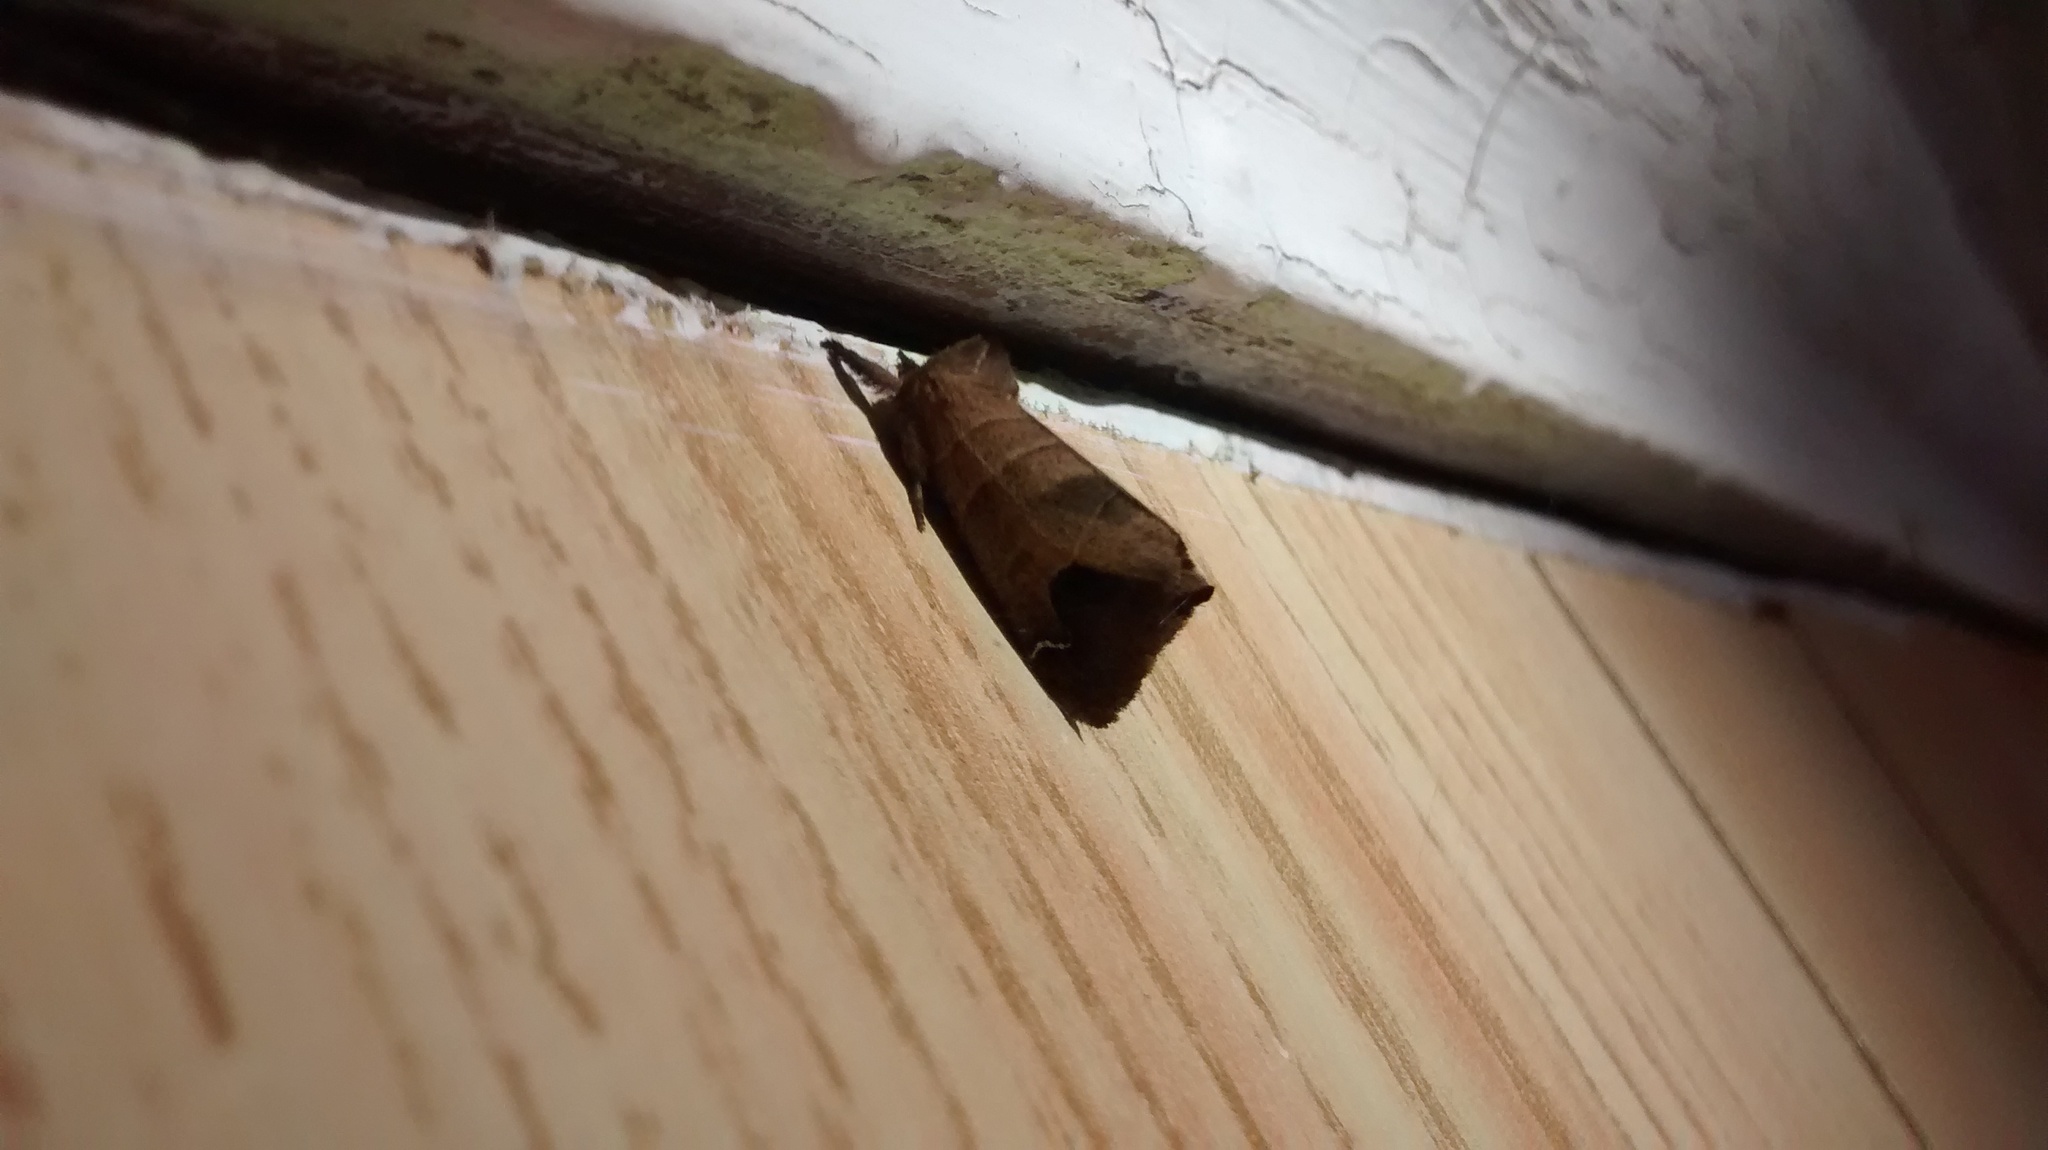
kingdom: Animalia
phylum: Arthropoda
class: Insecta
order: Lepidoptera
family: Notodontidae
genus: Clostera
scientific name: Clostera albosigma
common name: Sigmoid prominent
